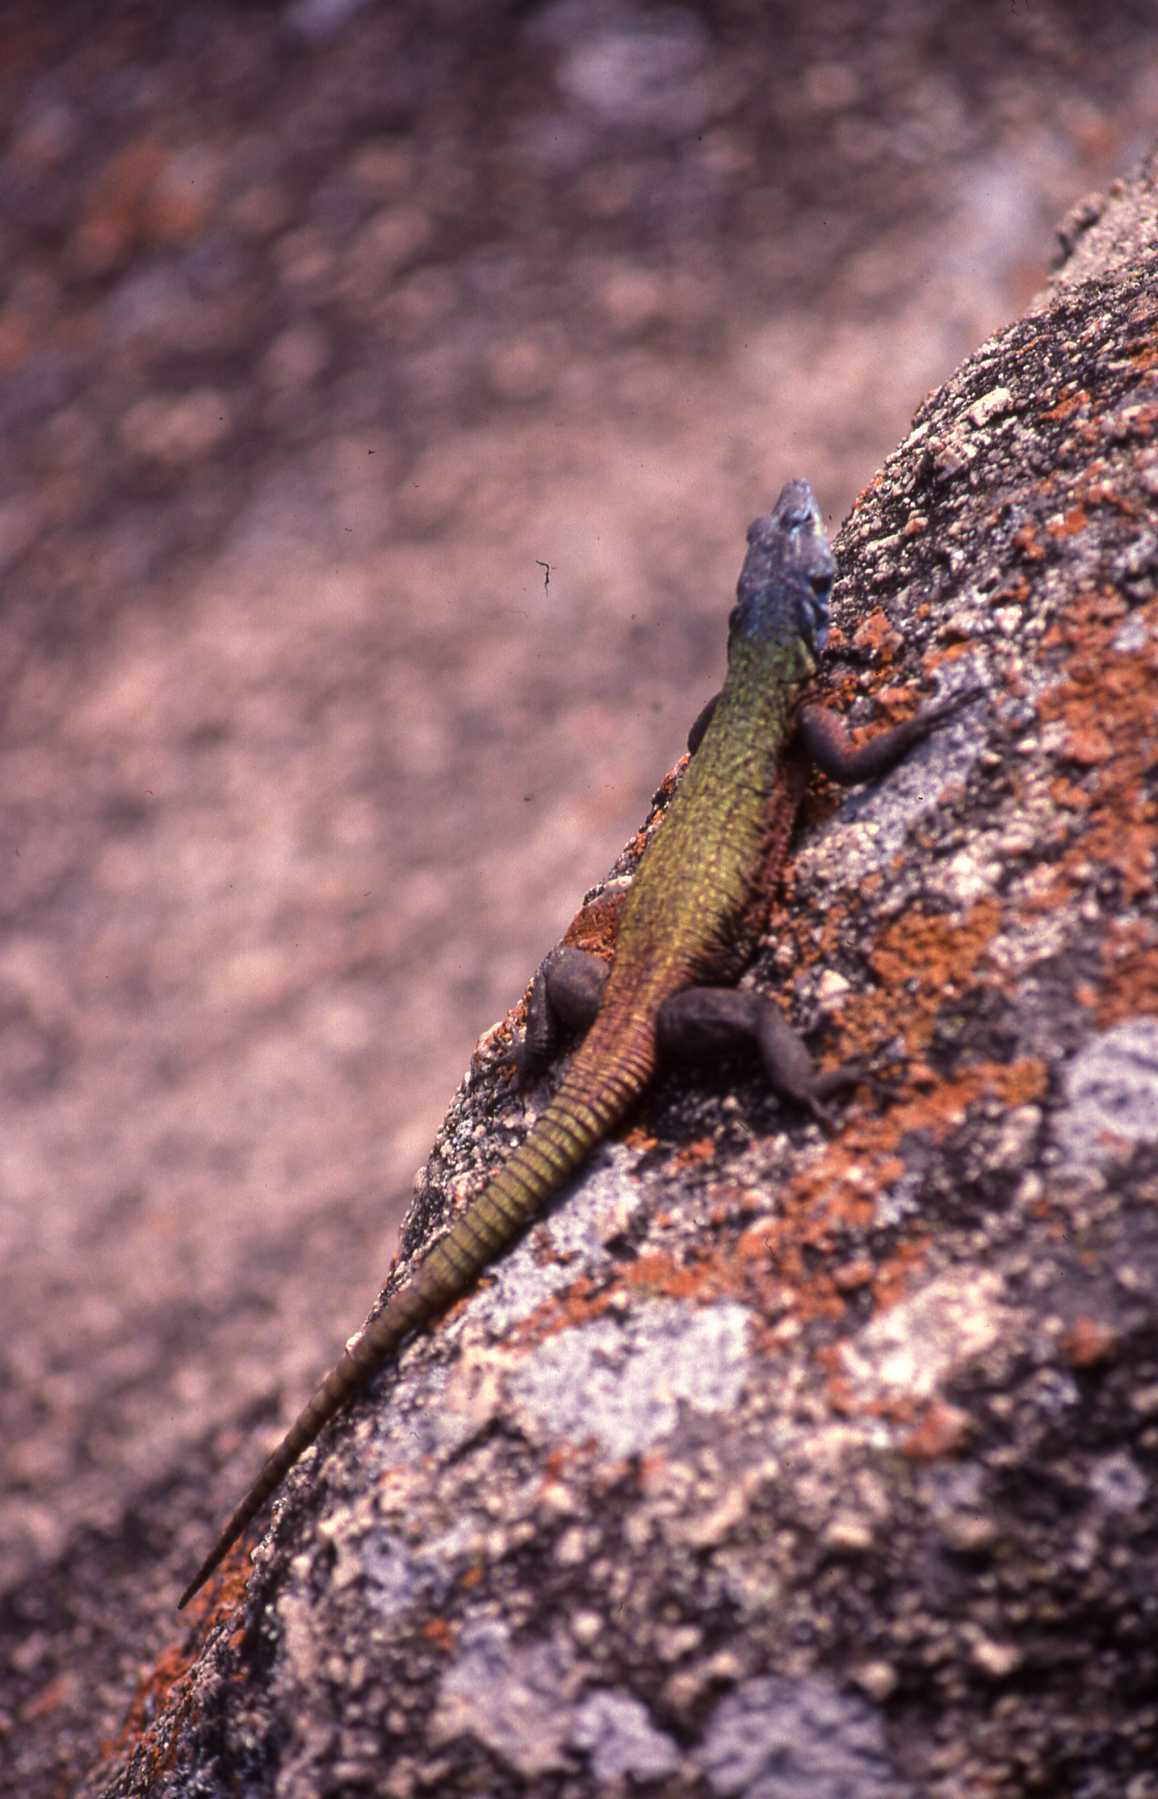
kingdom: Animalia
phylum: Chordata
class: Squamata
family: Cordylidae
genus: Platysaurus
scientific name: Platysaurus intermedius
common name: Common flat lizard
